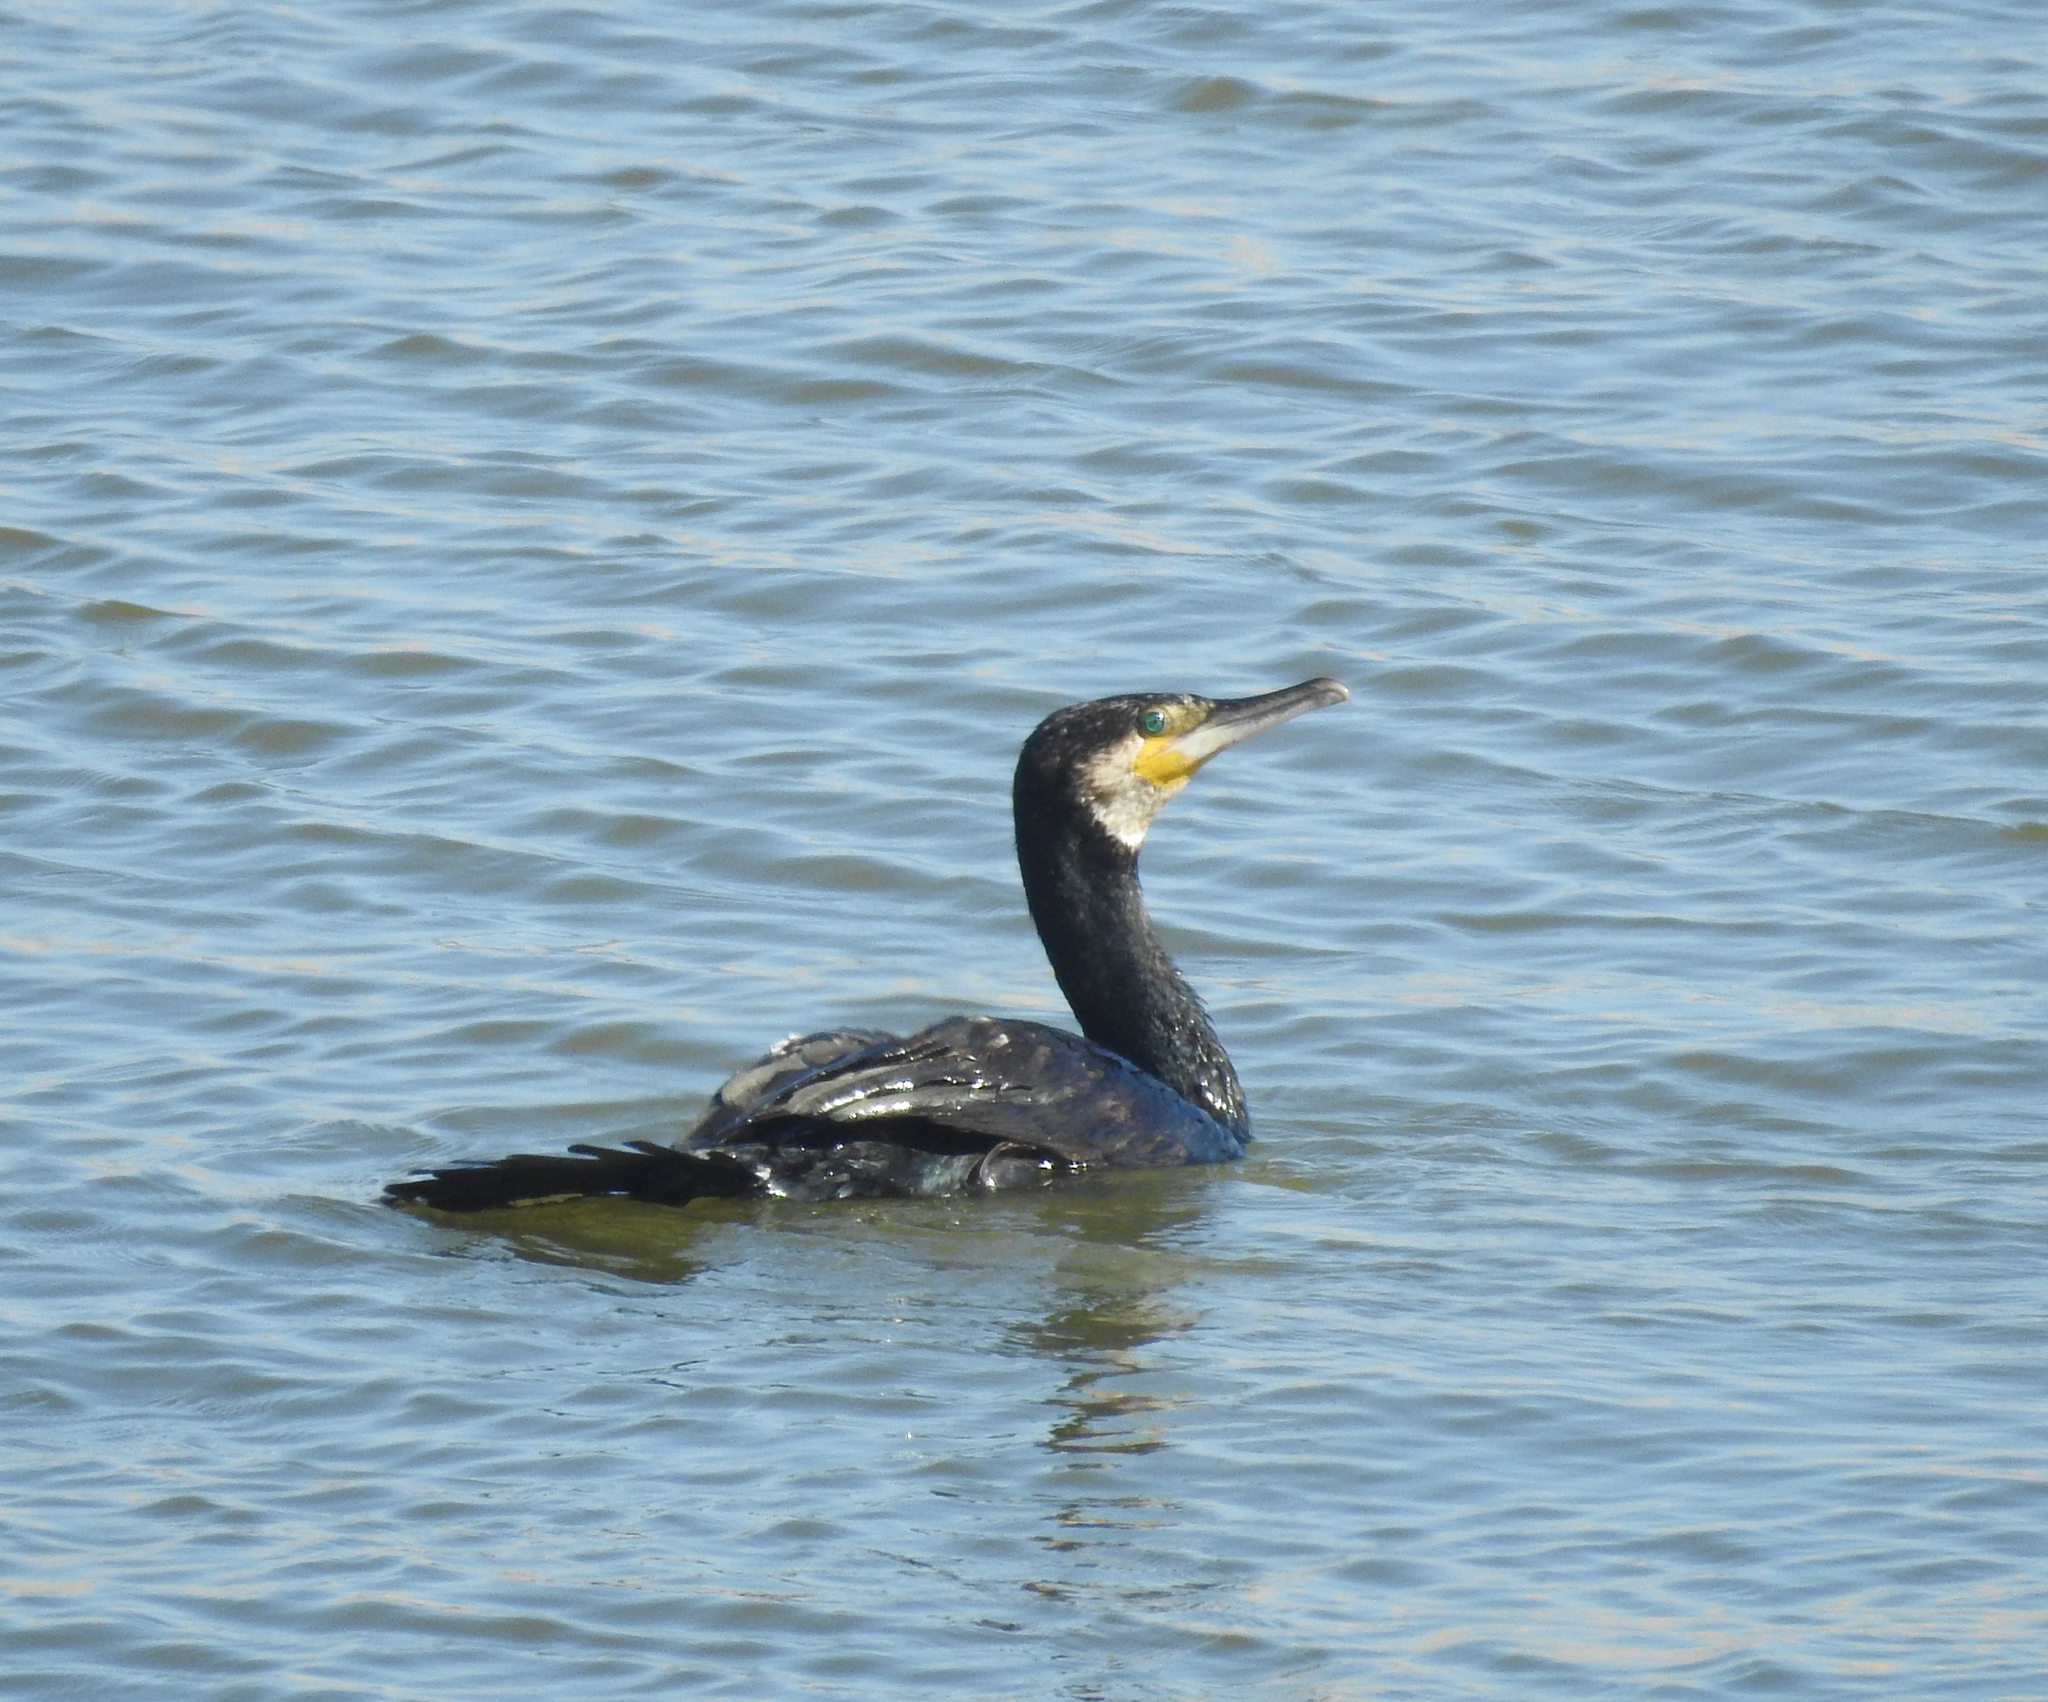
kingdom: Animalia
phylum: Chordata
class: Aves
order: Suliformes
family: Phalacrocoracidae
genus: Phalacrocorax
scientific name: Phalacrocorax carbo
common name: Great cormorant
